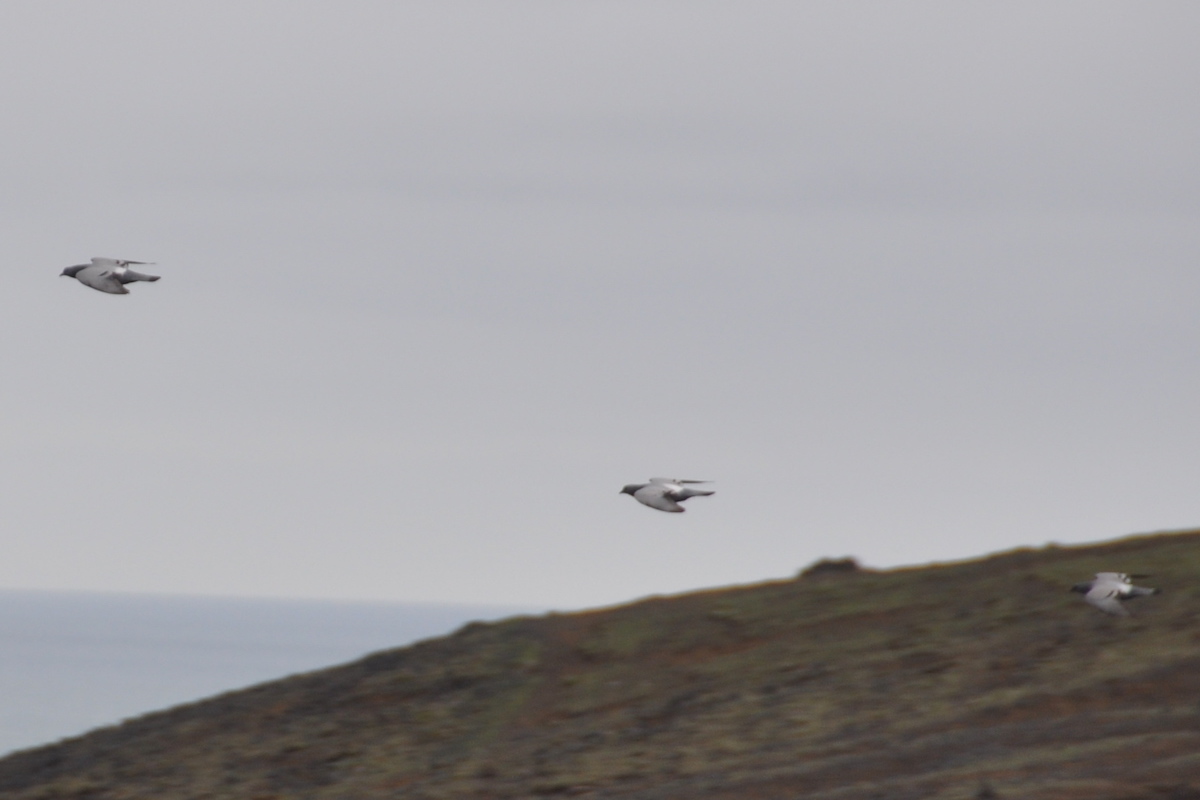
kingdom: Animalia
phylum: Chordata
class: Aves
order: Columbiformes
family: Columbidae
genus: Columba
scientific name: Columba livia
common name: Rock pigeon
